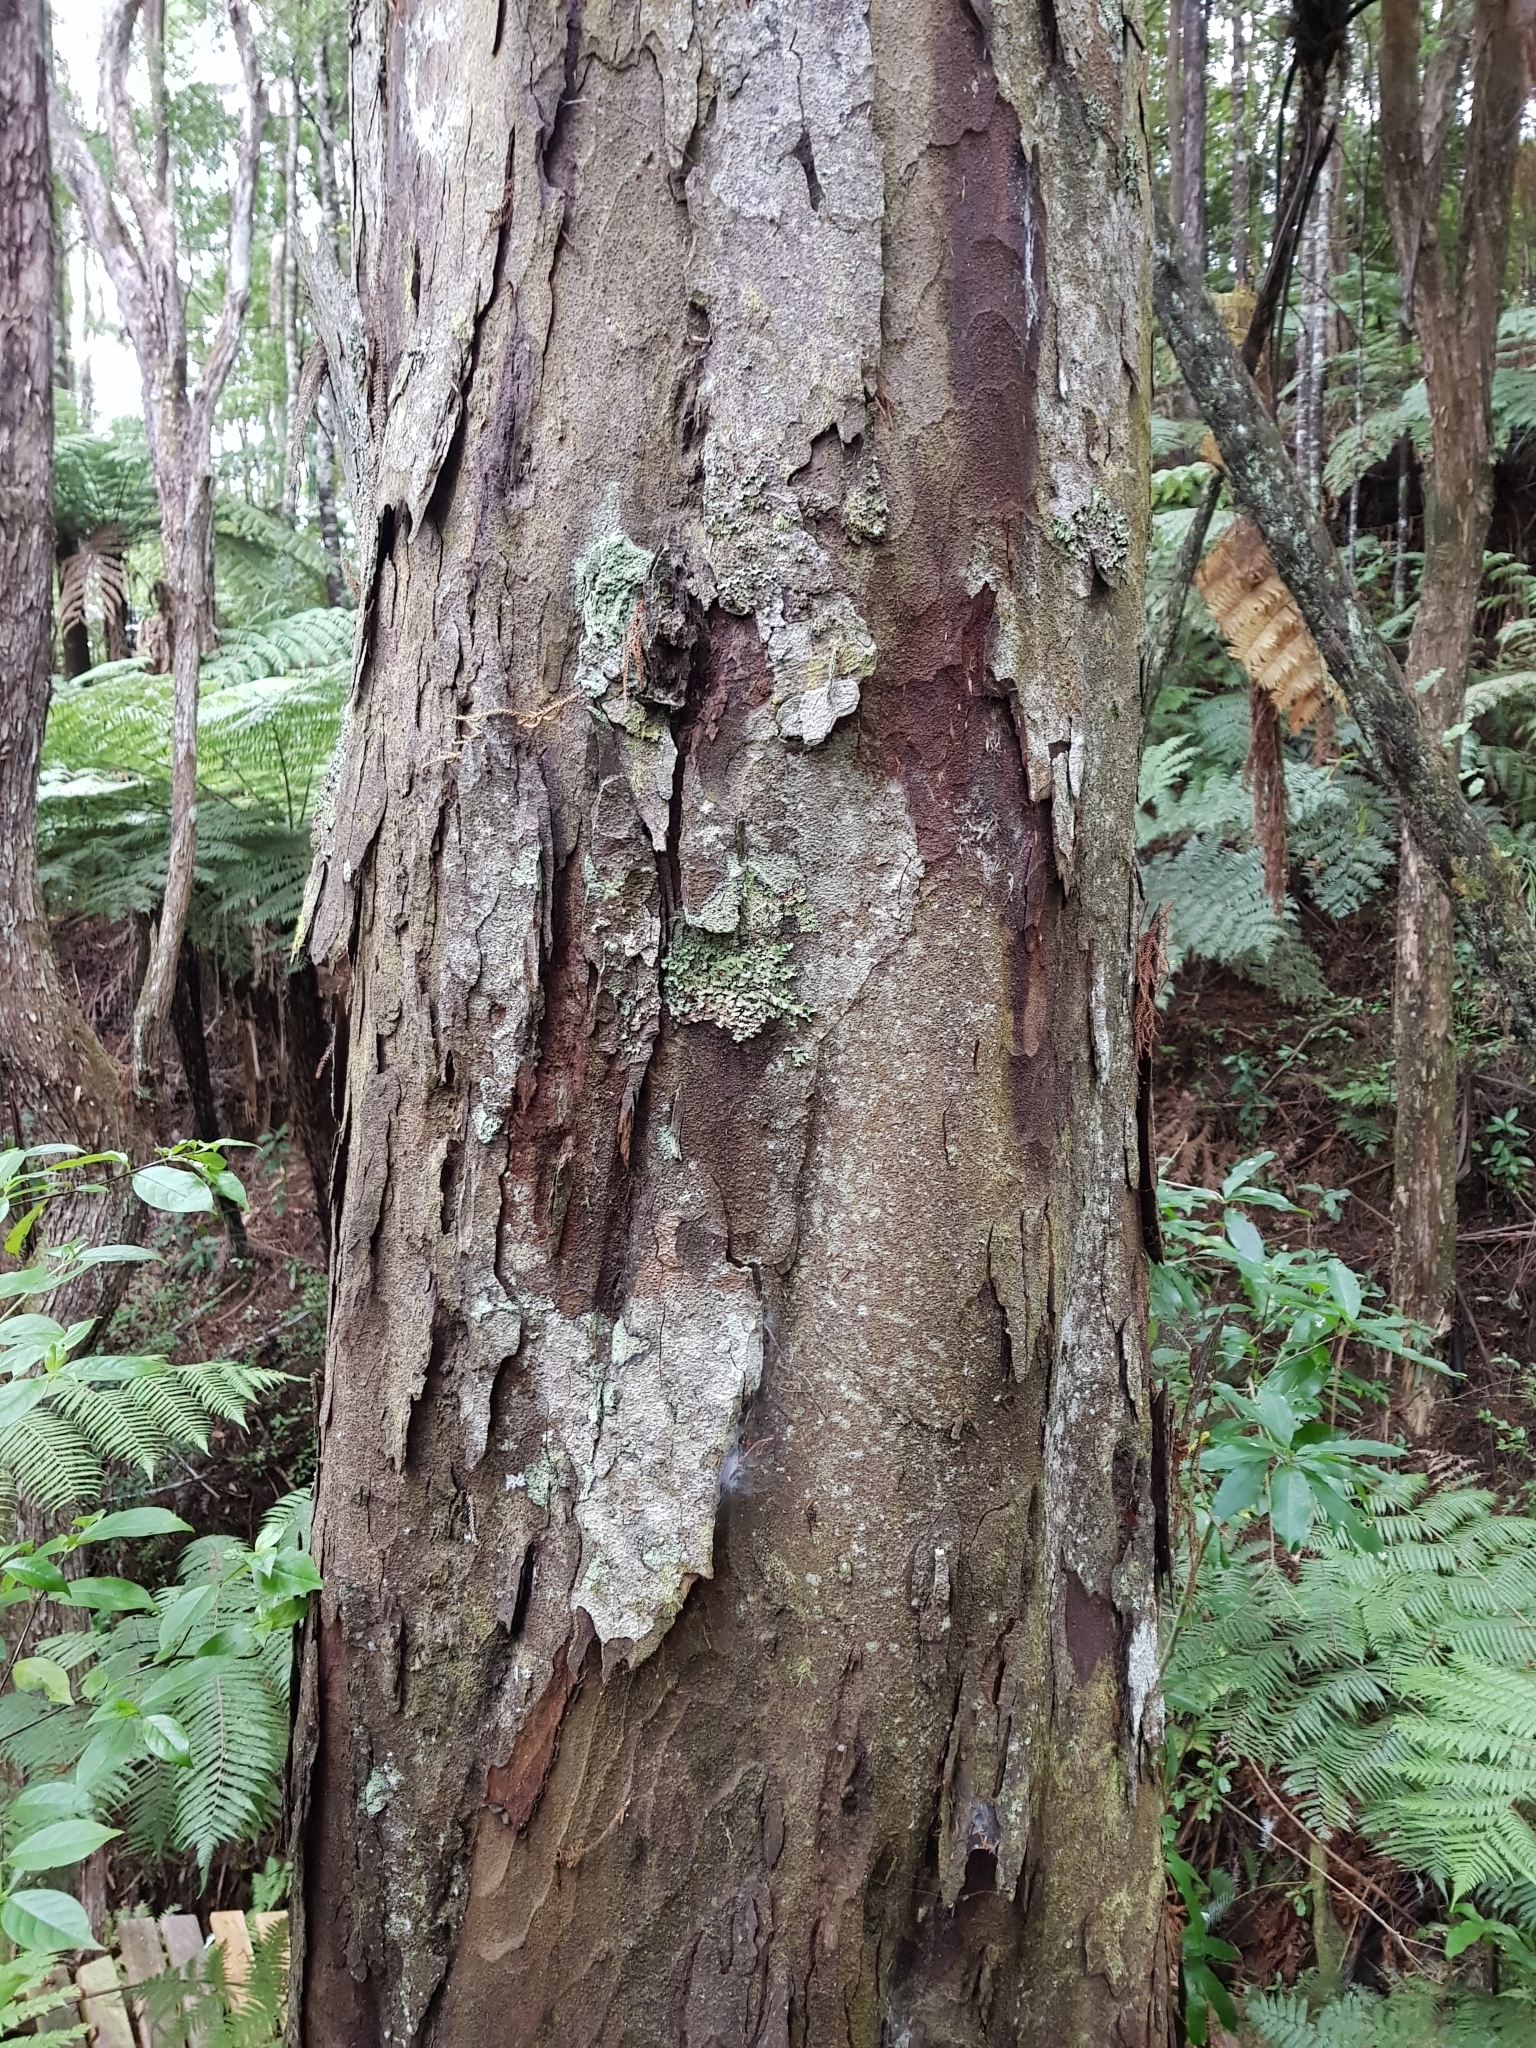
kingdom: Plantae
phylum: Tracheophyta
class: Pinopsida
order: Pinales
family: Podocarpaceae
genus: Dacrydium
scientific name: Dacrydium cupressinum
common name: Red pine
